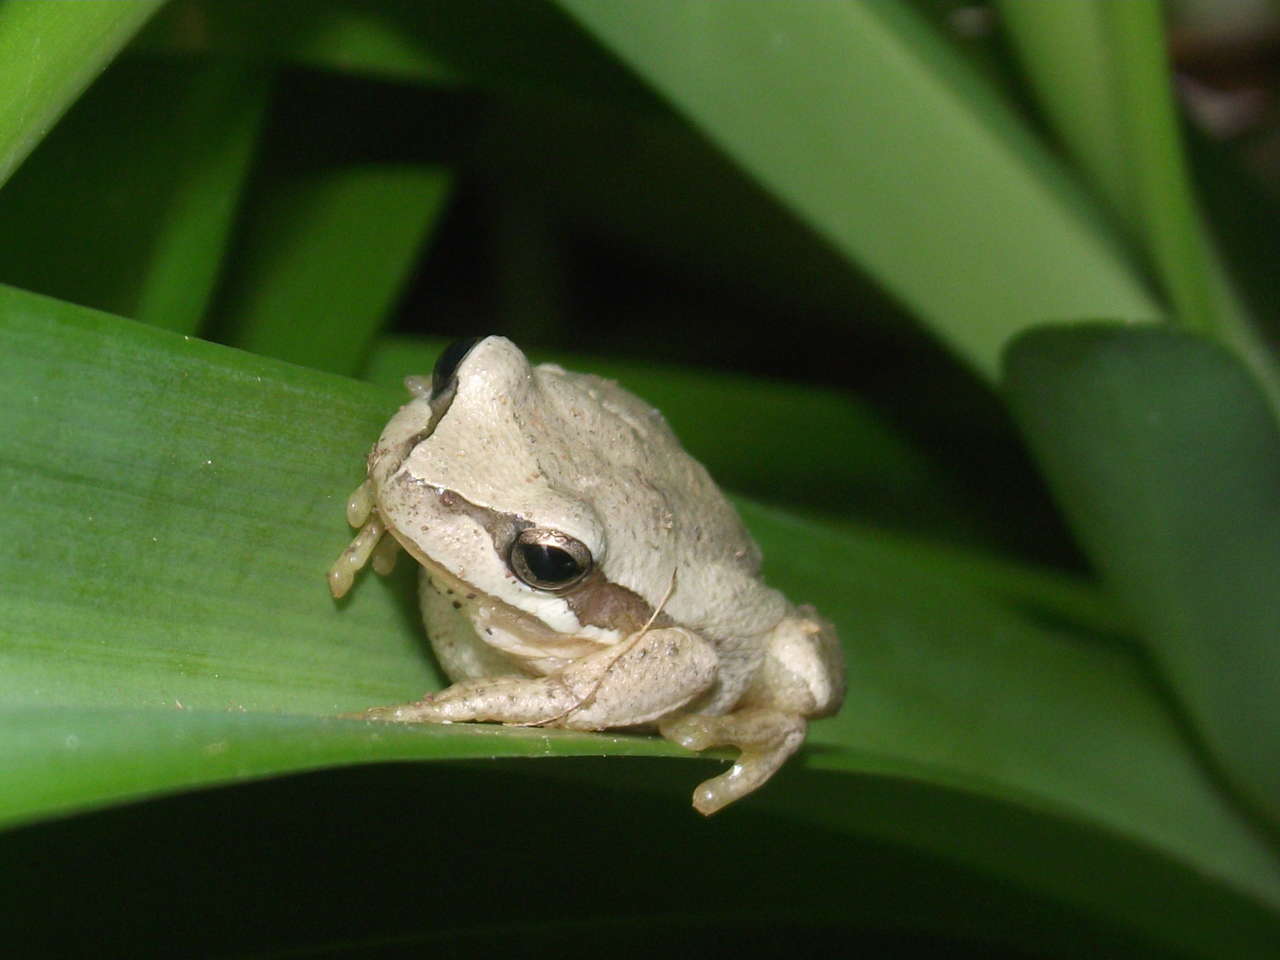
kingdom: Animalia
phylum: Chordata
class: Amphibia
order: Anura
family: Pelodryadidae
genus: Litoria
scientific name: Litoria ewingii
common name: Southern brown tree frog
